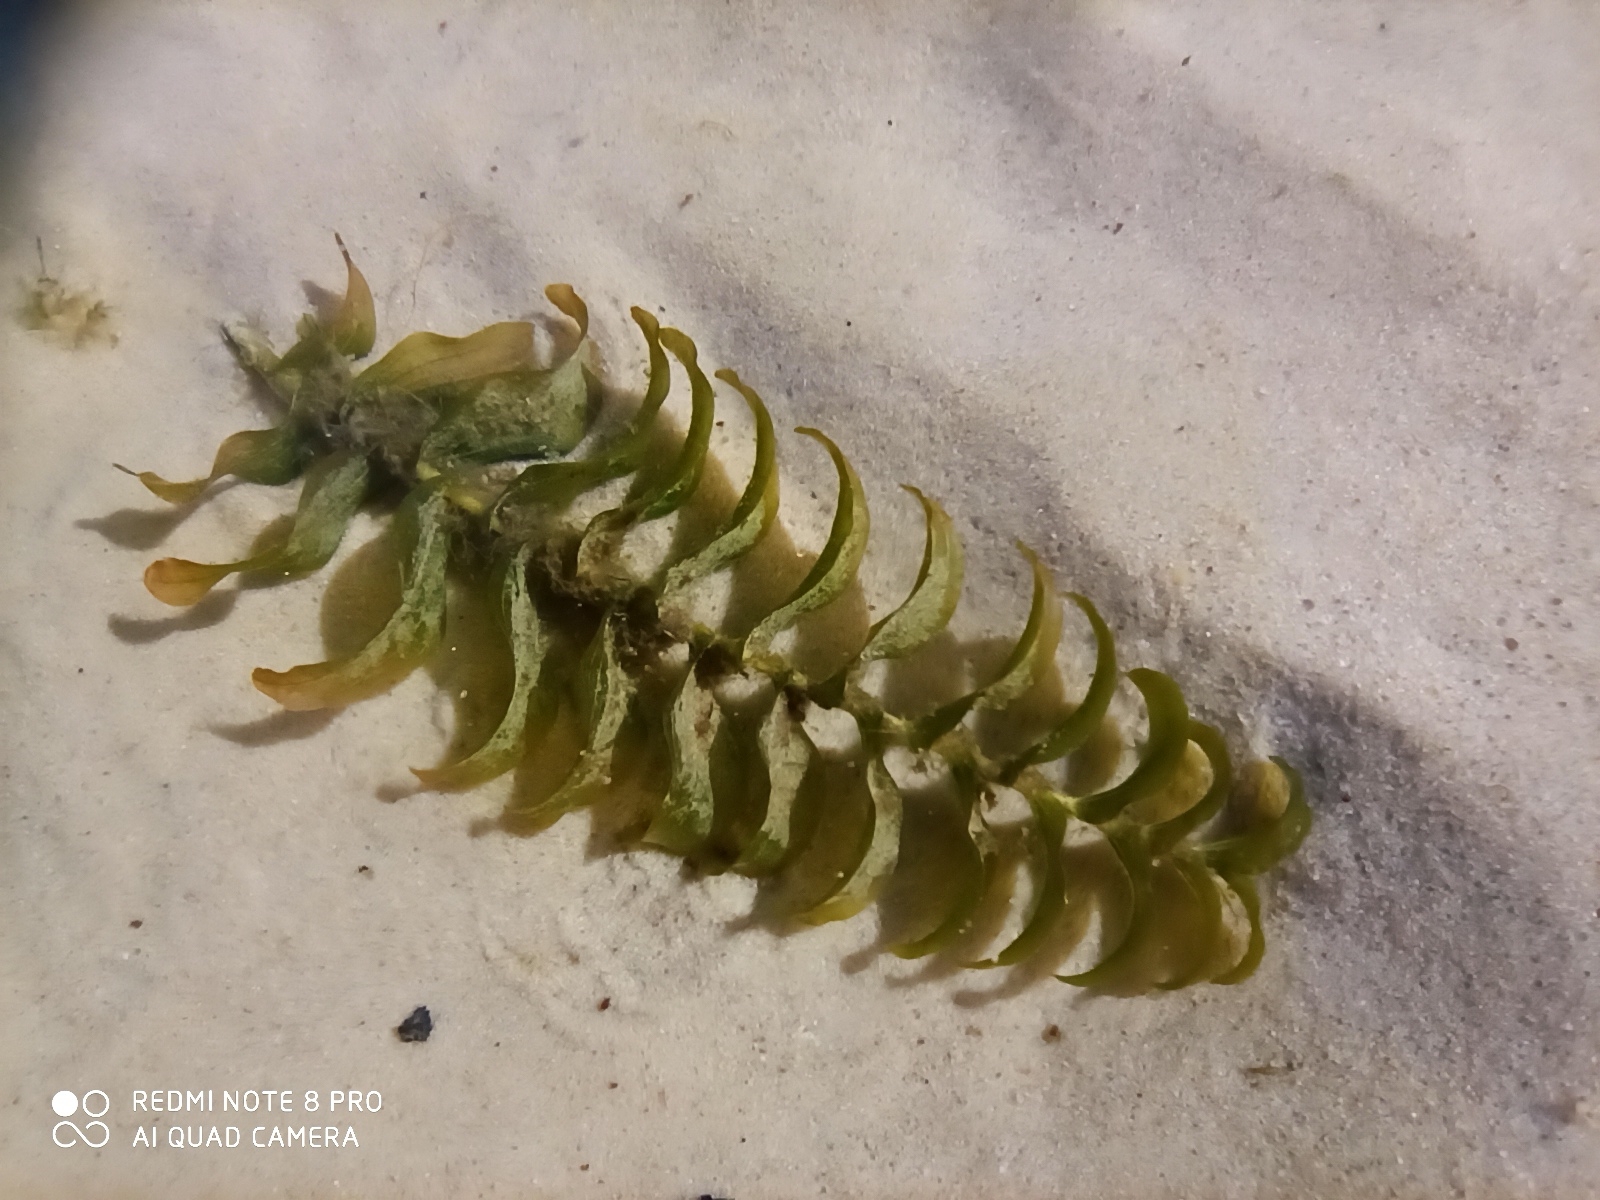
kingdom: Plantae
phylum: Tracheophyta
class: Liliopsida
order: Alismatales
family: Potamogetonaceae
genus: Potamogeton
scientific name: Potamogeton perfoliatus
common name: Perfoliate pondweed
